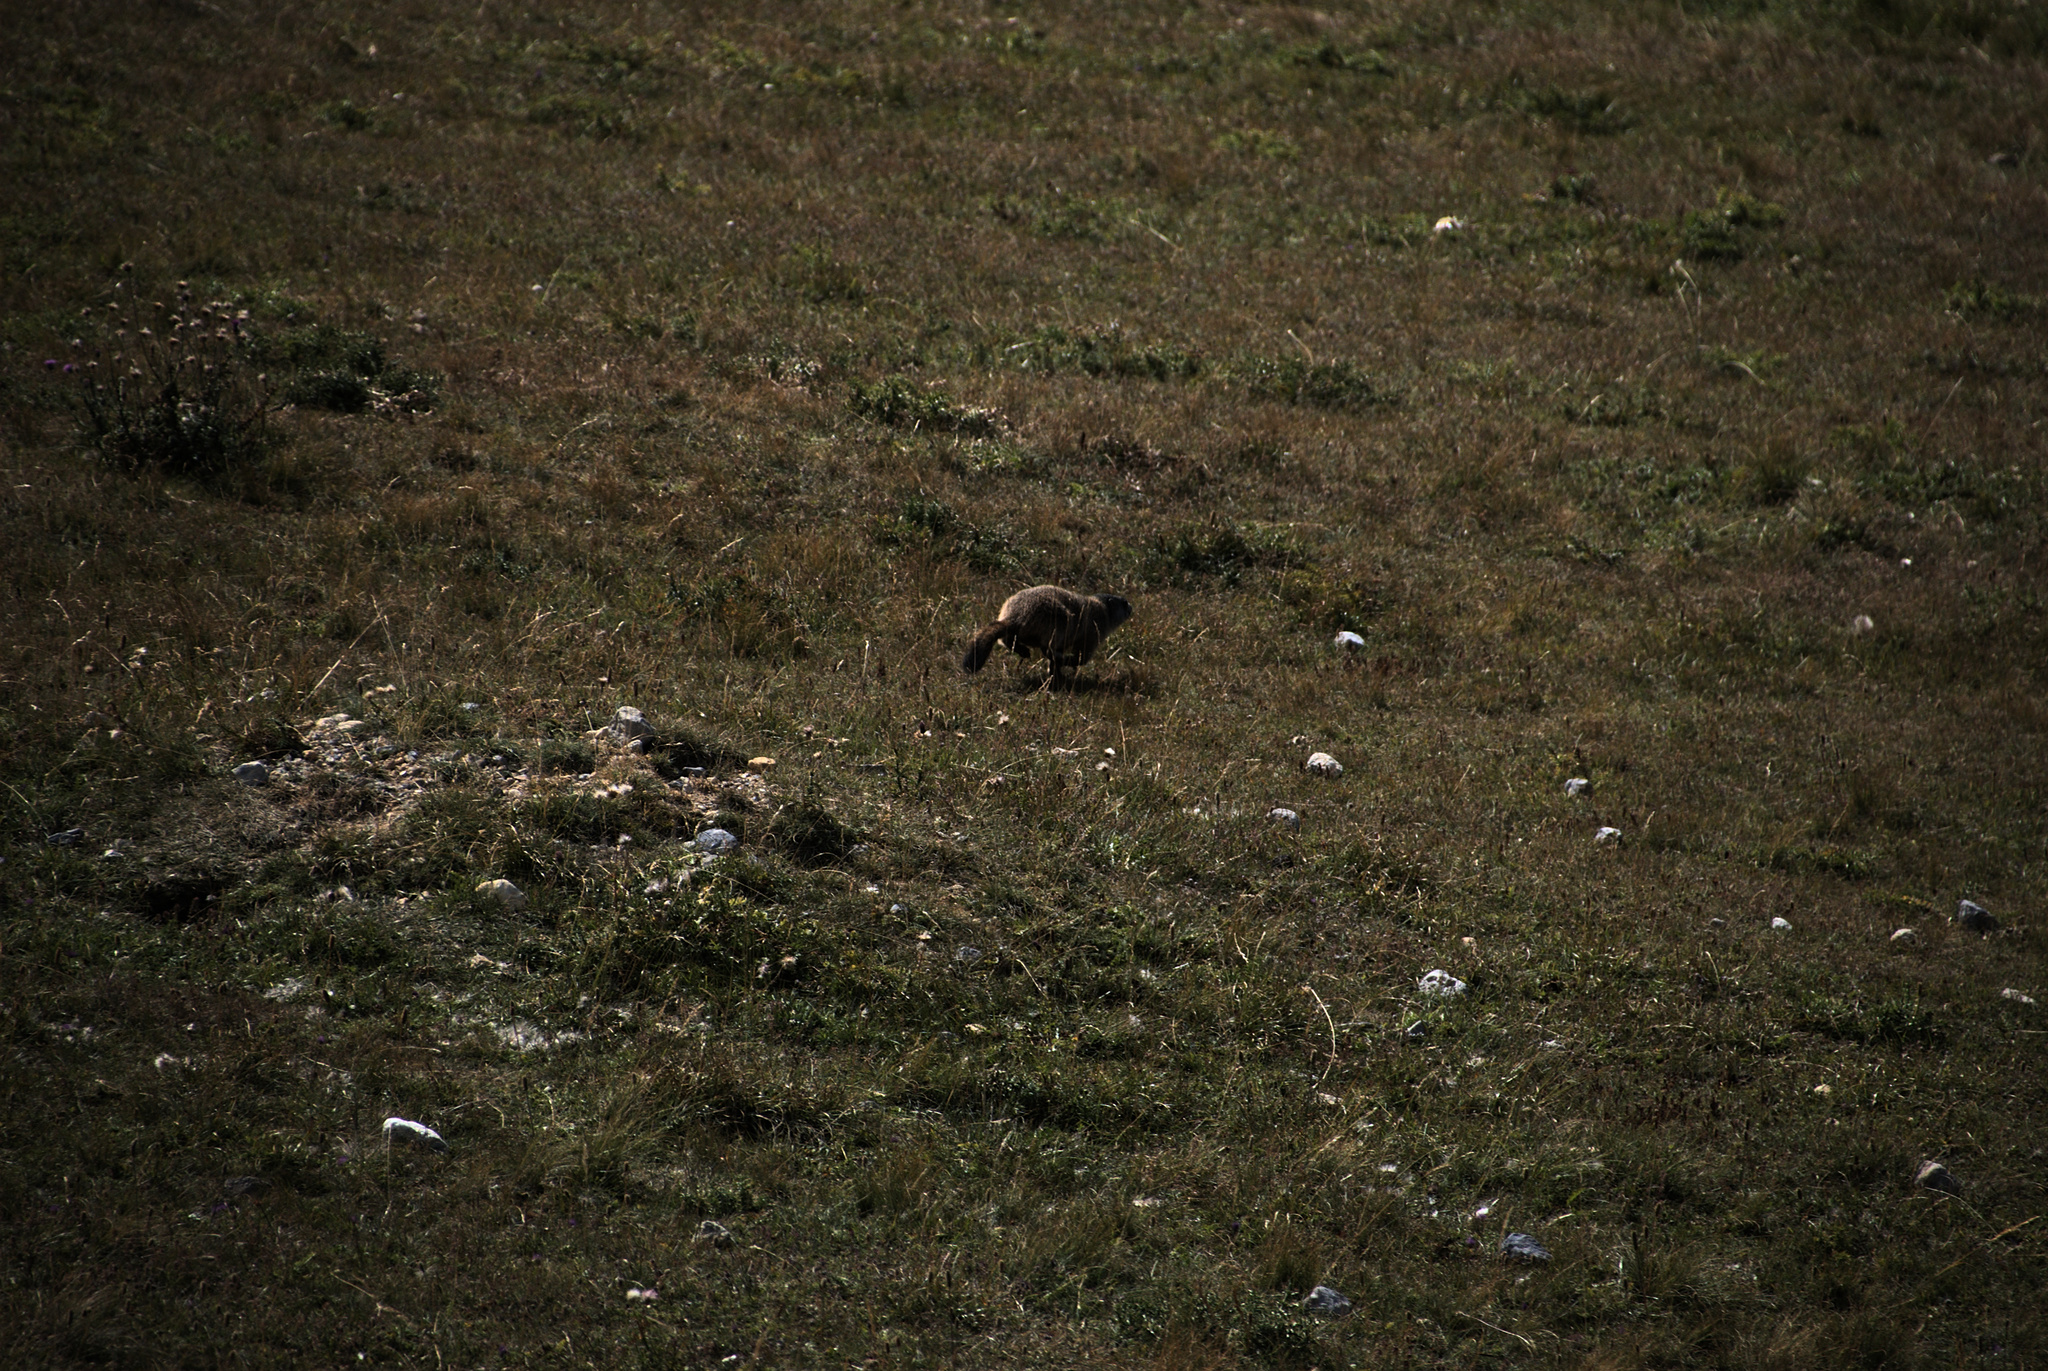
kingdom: Animalia
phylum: Chordata
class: Mammalia
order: Rodentia
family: Sciuridae
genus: Marmota
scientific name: Marmota marmota
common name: Alpine marmot
